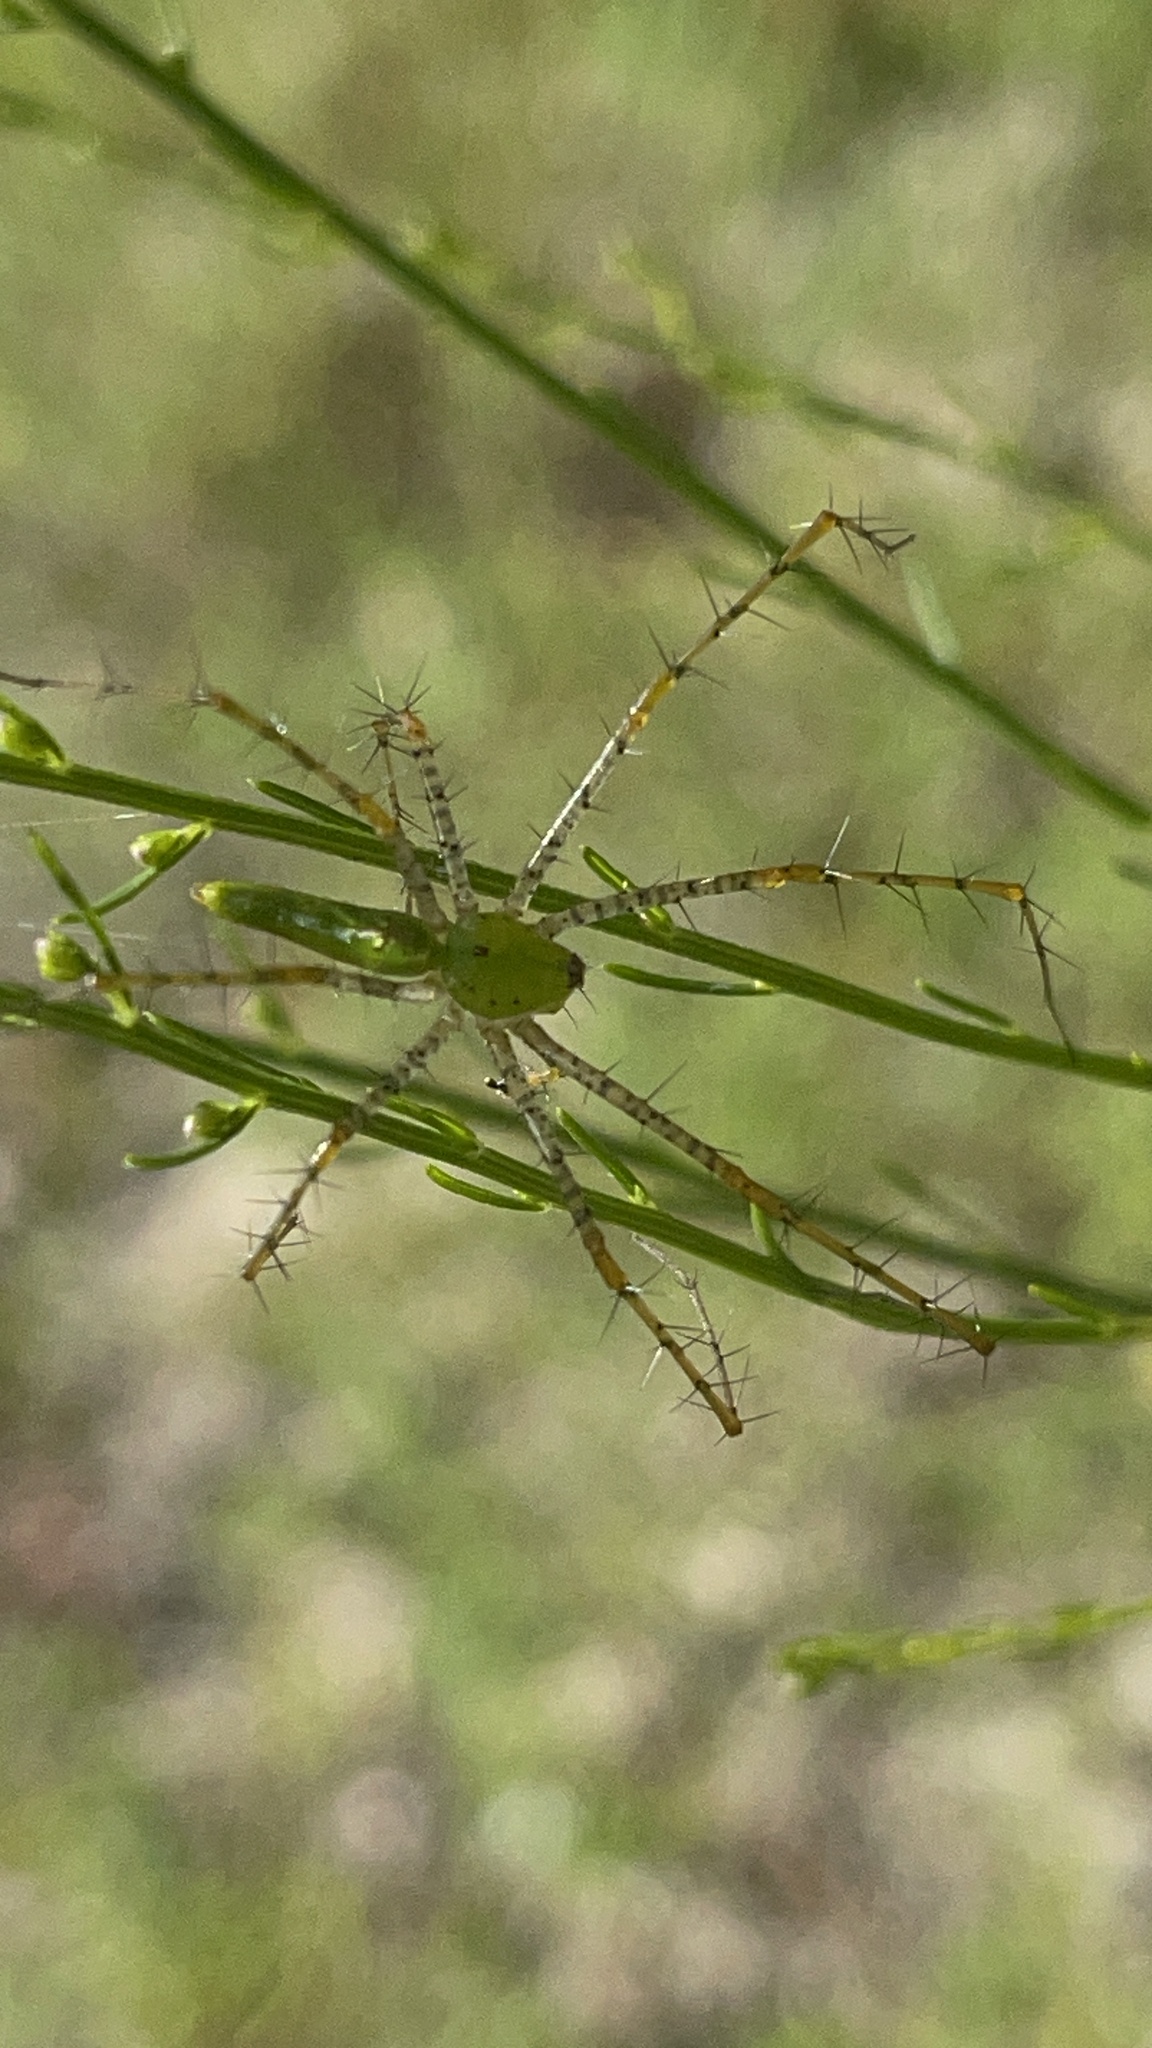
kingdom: Animalia
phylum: Arthropoda
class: Arachnida
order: Araneae
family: Oxyopidae
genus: Peucetia
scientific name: Peucetia viridans
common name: Lynx spiders
